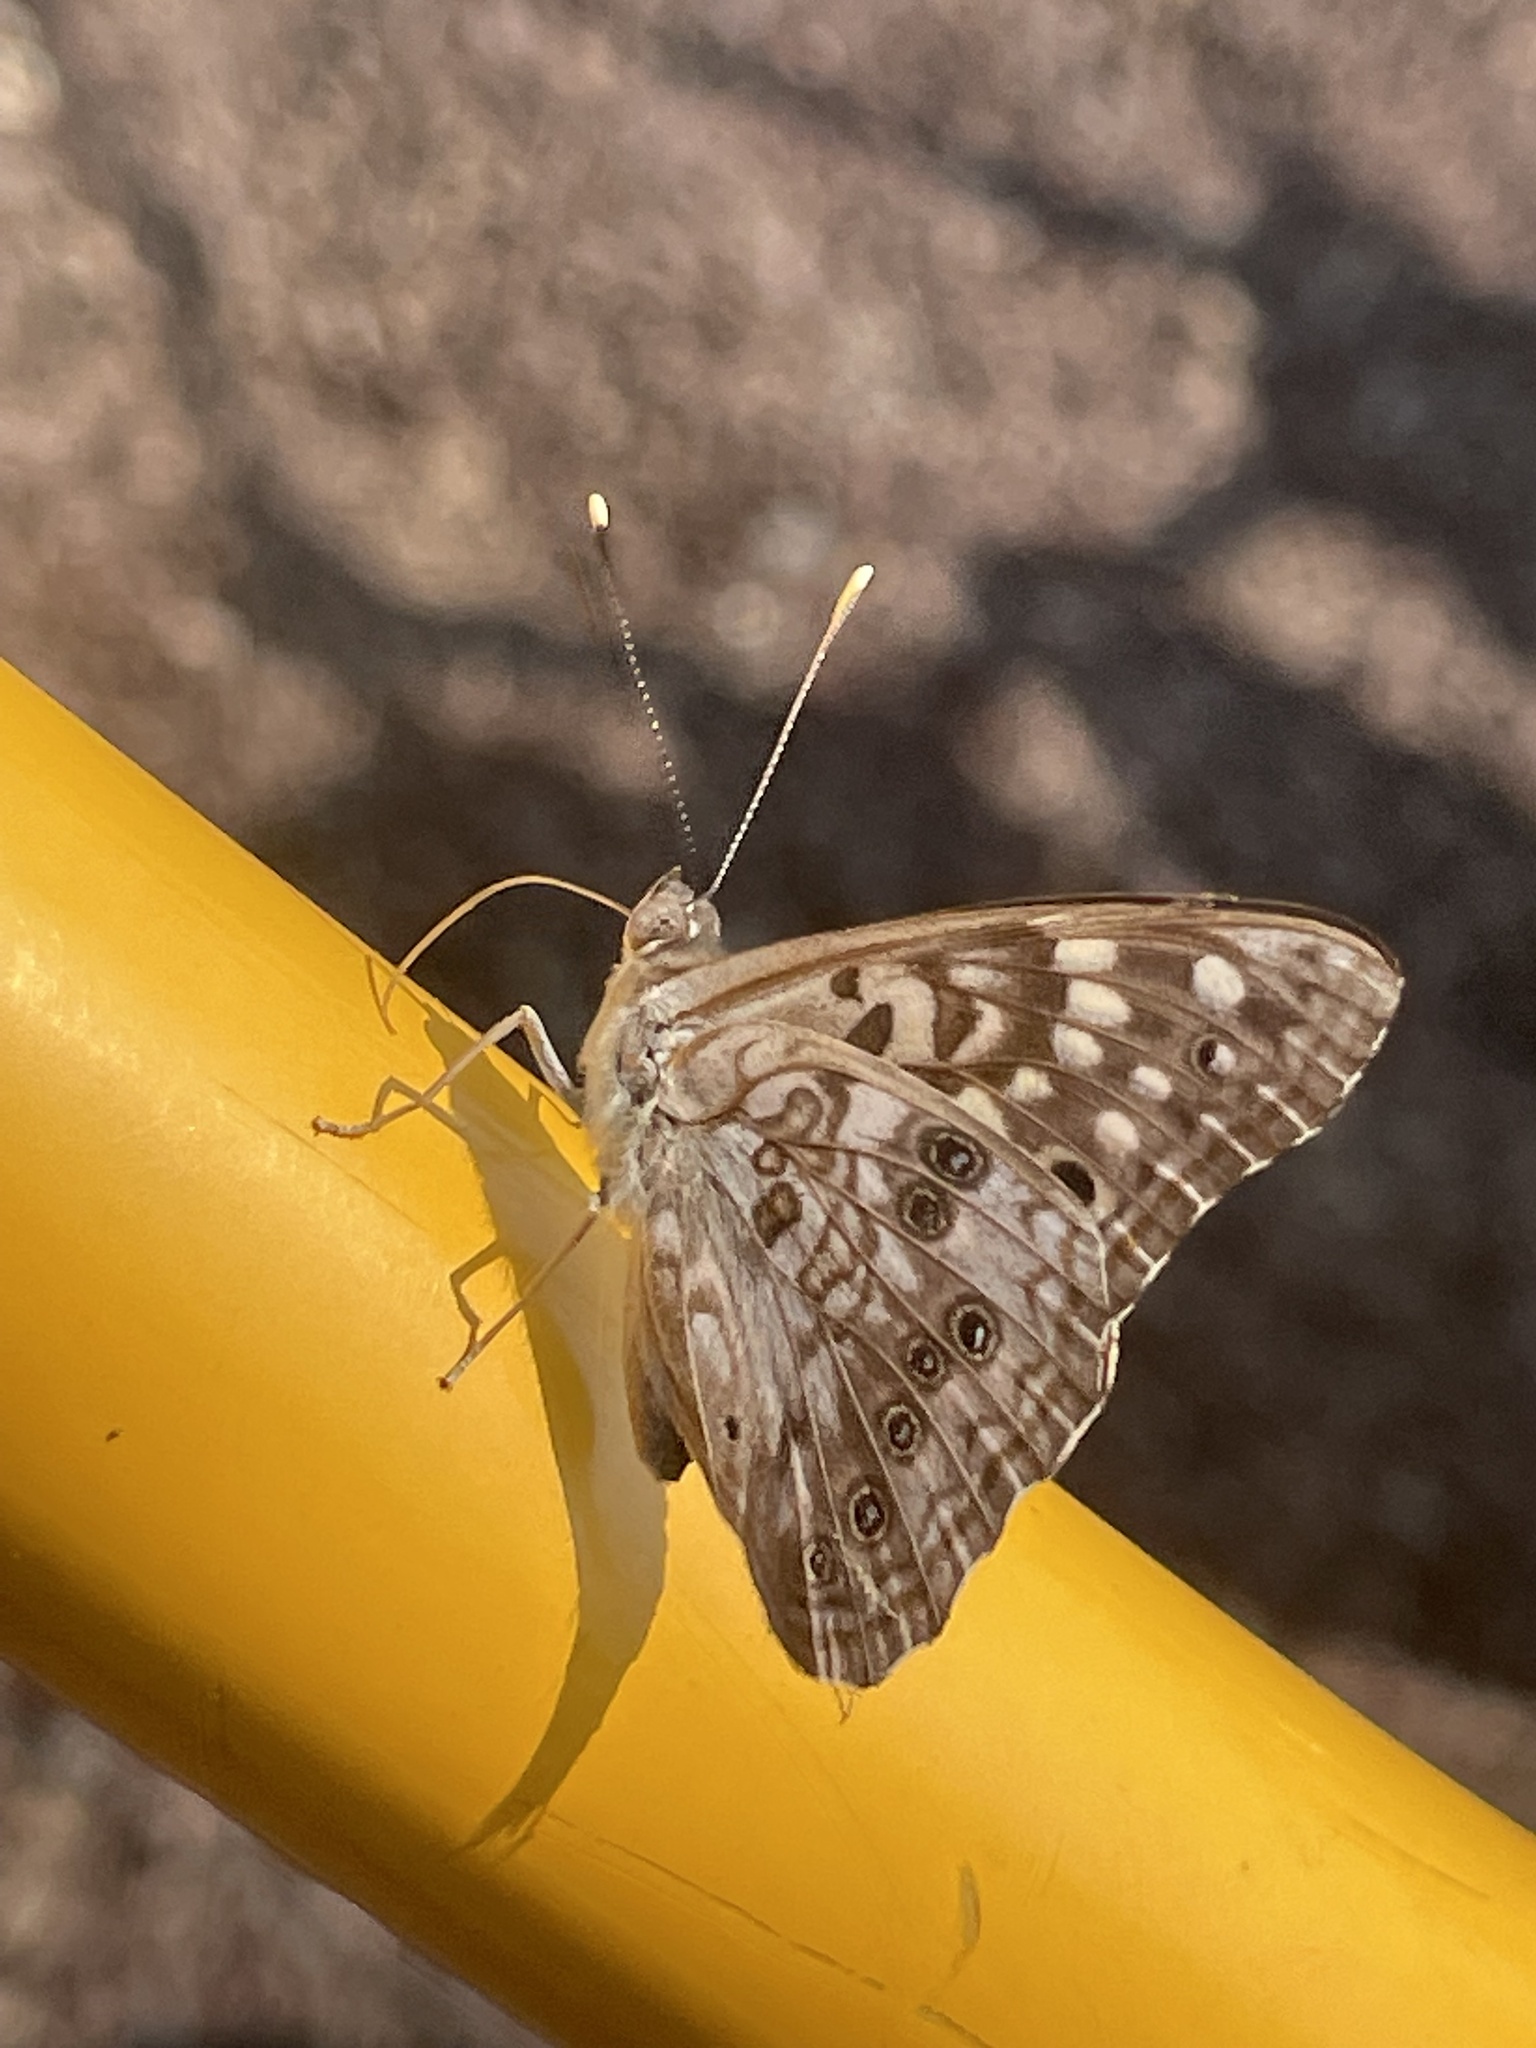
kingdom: Animalia
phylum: Arthropoda
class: Insecta
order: Lepidoptera
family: Nymphalidae
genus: Asterocampa
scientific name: Asterocampa celtis
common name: Hackberry emperor
